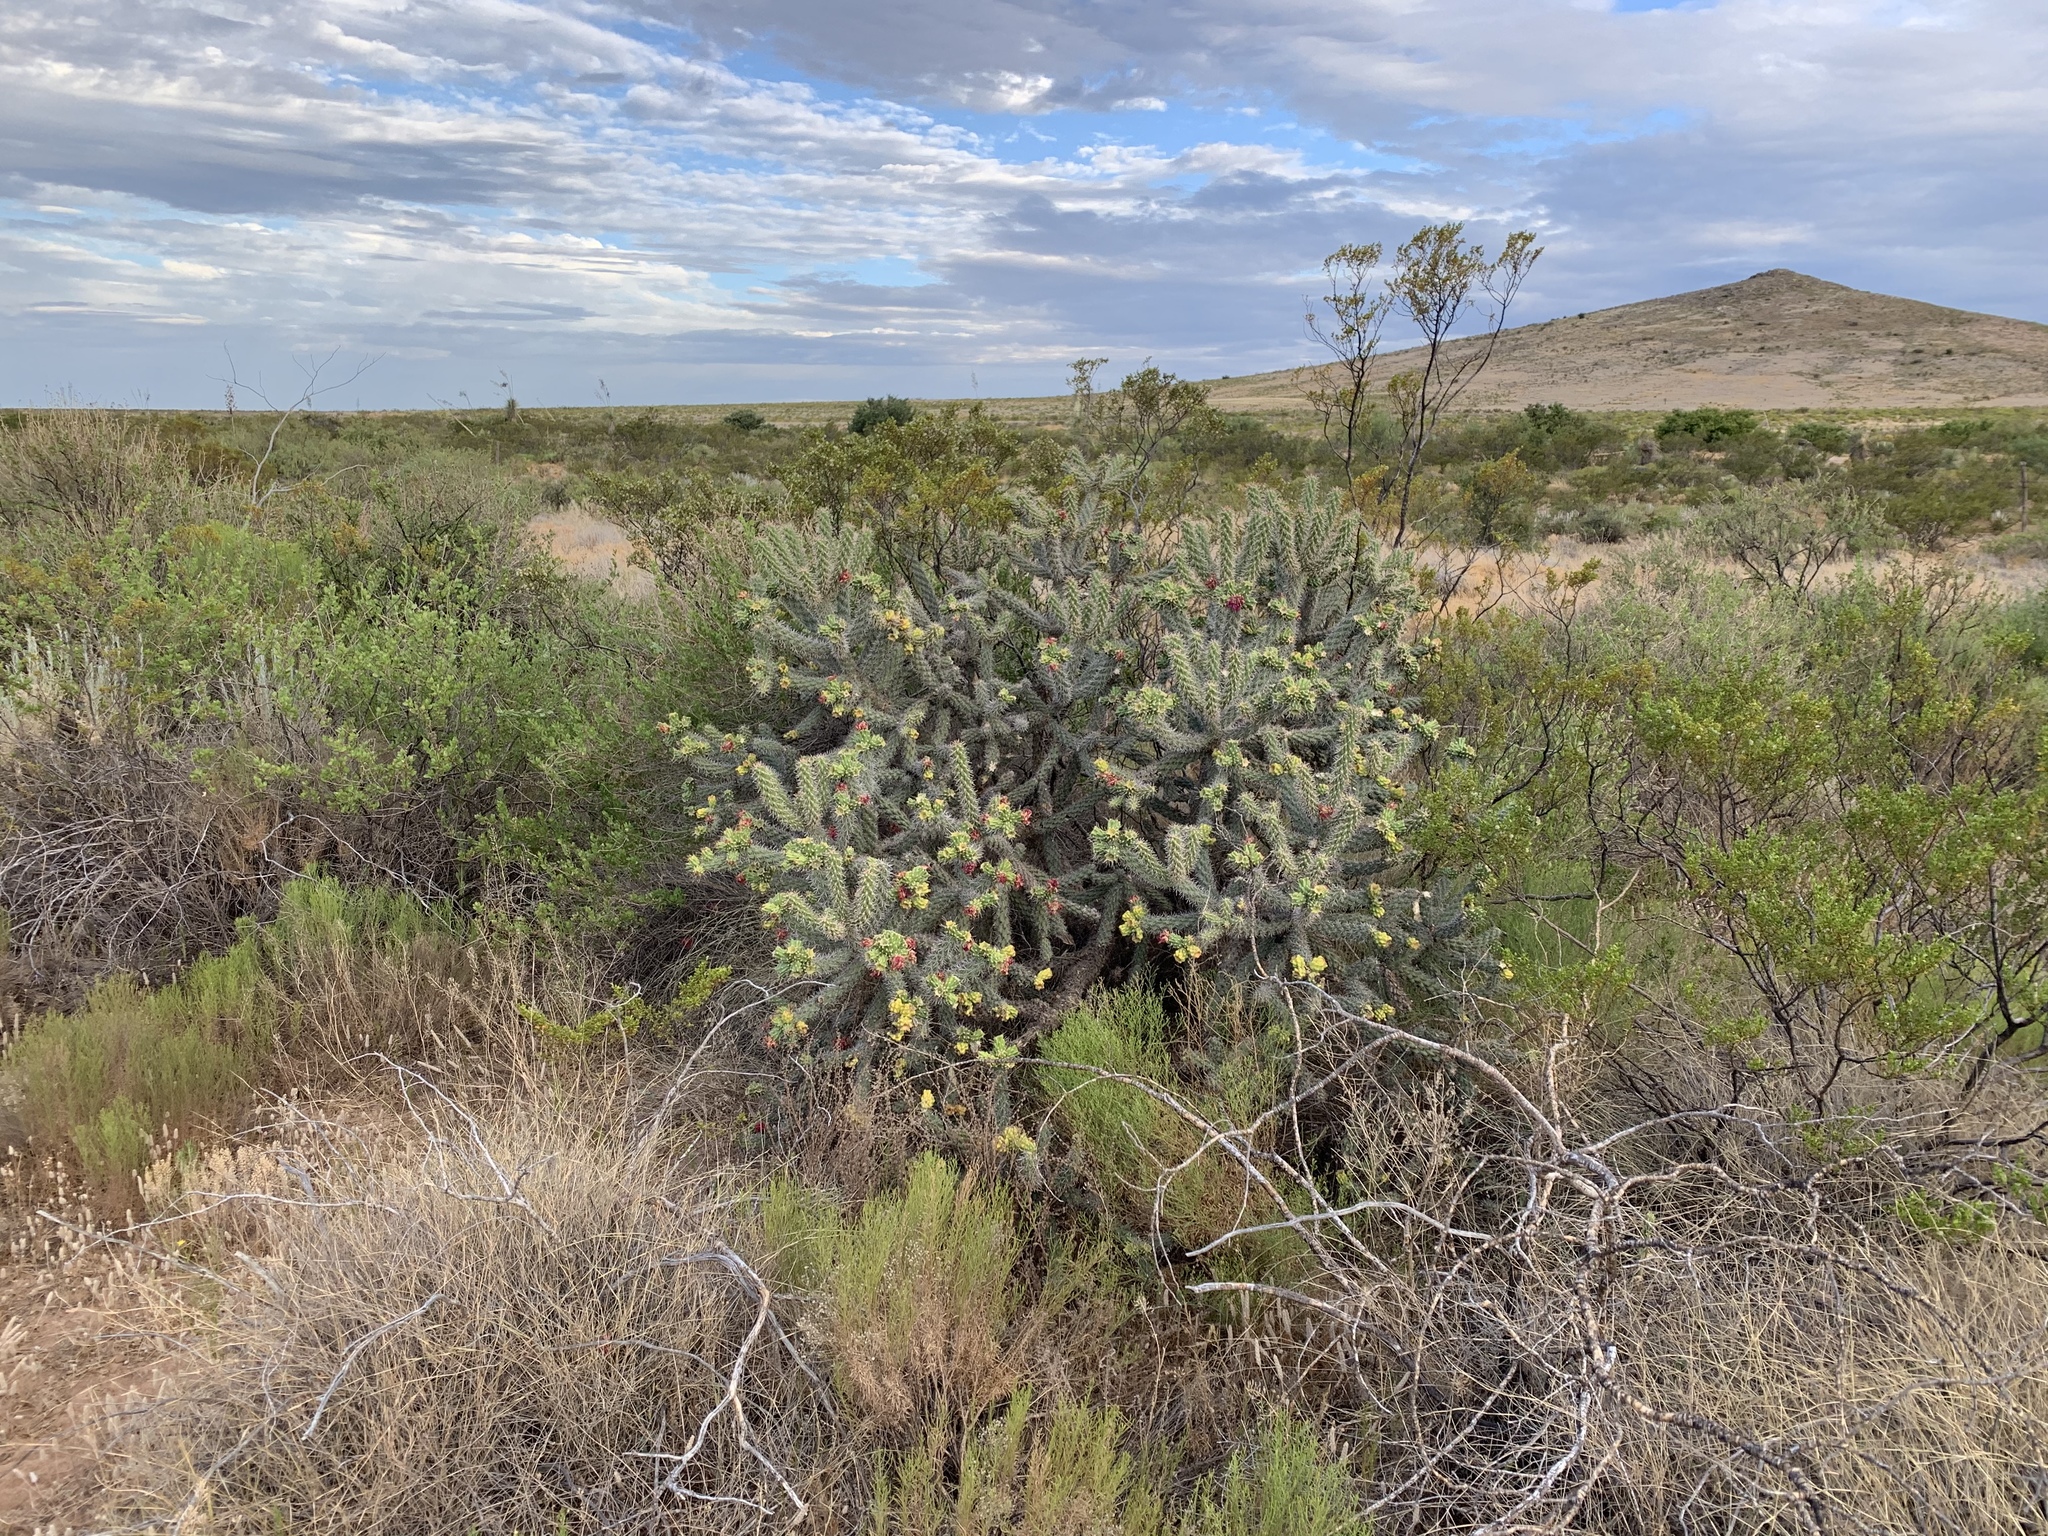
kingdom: Plantae
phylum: Tracheophyta
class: Magnoliopsida
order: Caryophyllales
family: Cactaceae
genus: Cylindropuntia
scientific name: Cylindropuntia imbricata
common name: Candelabrum cactus
